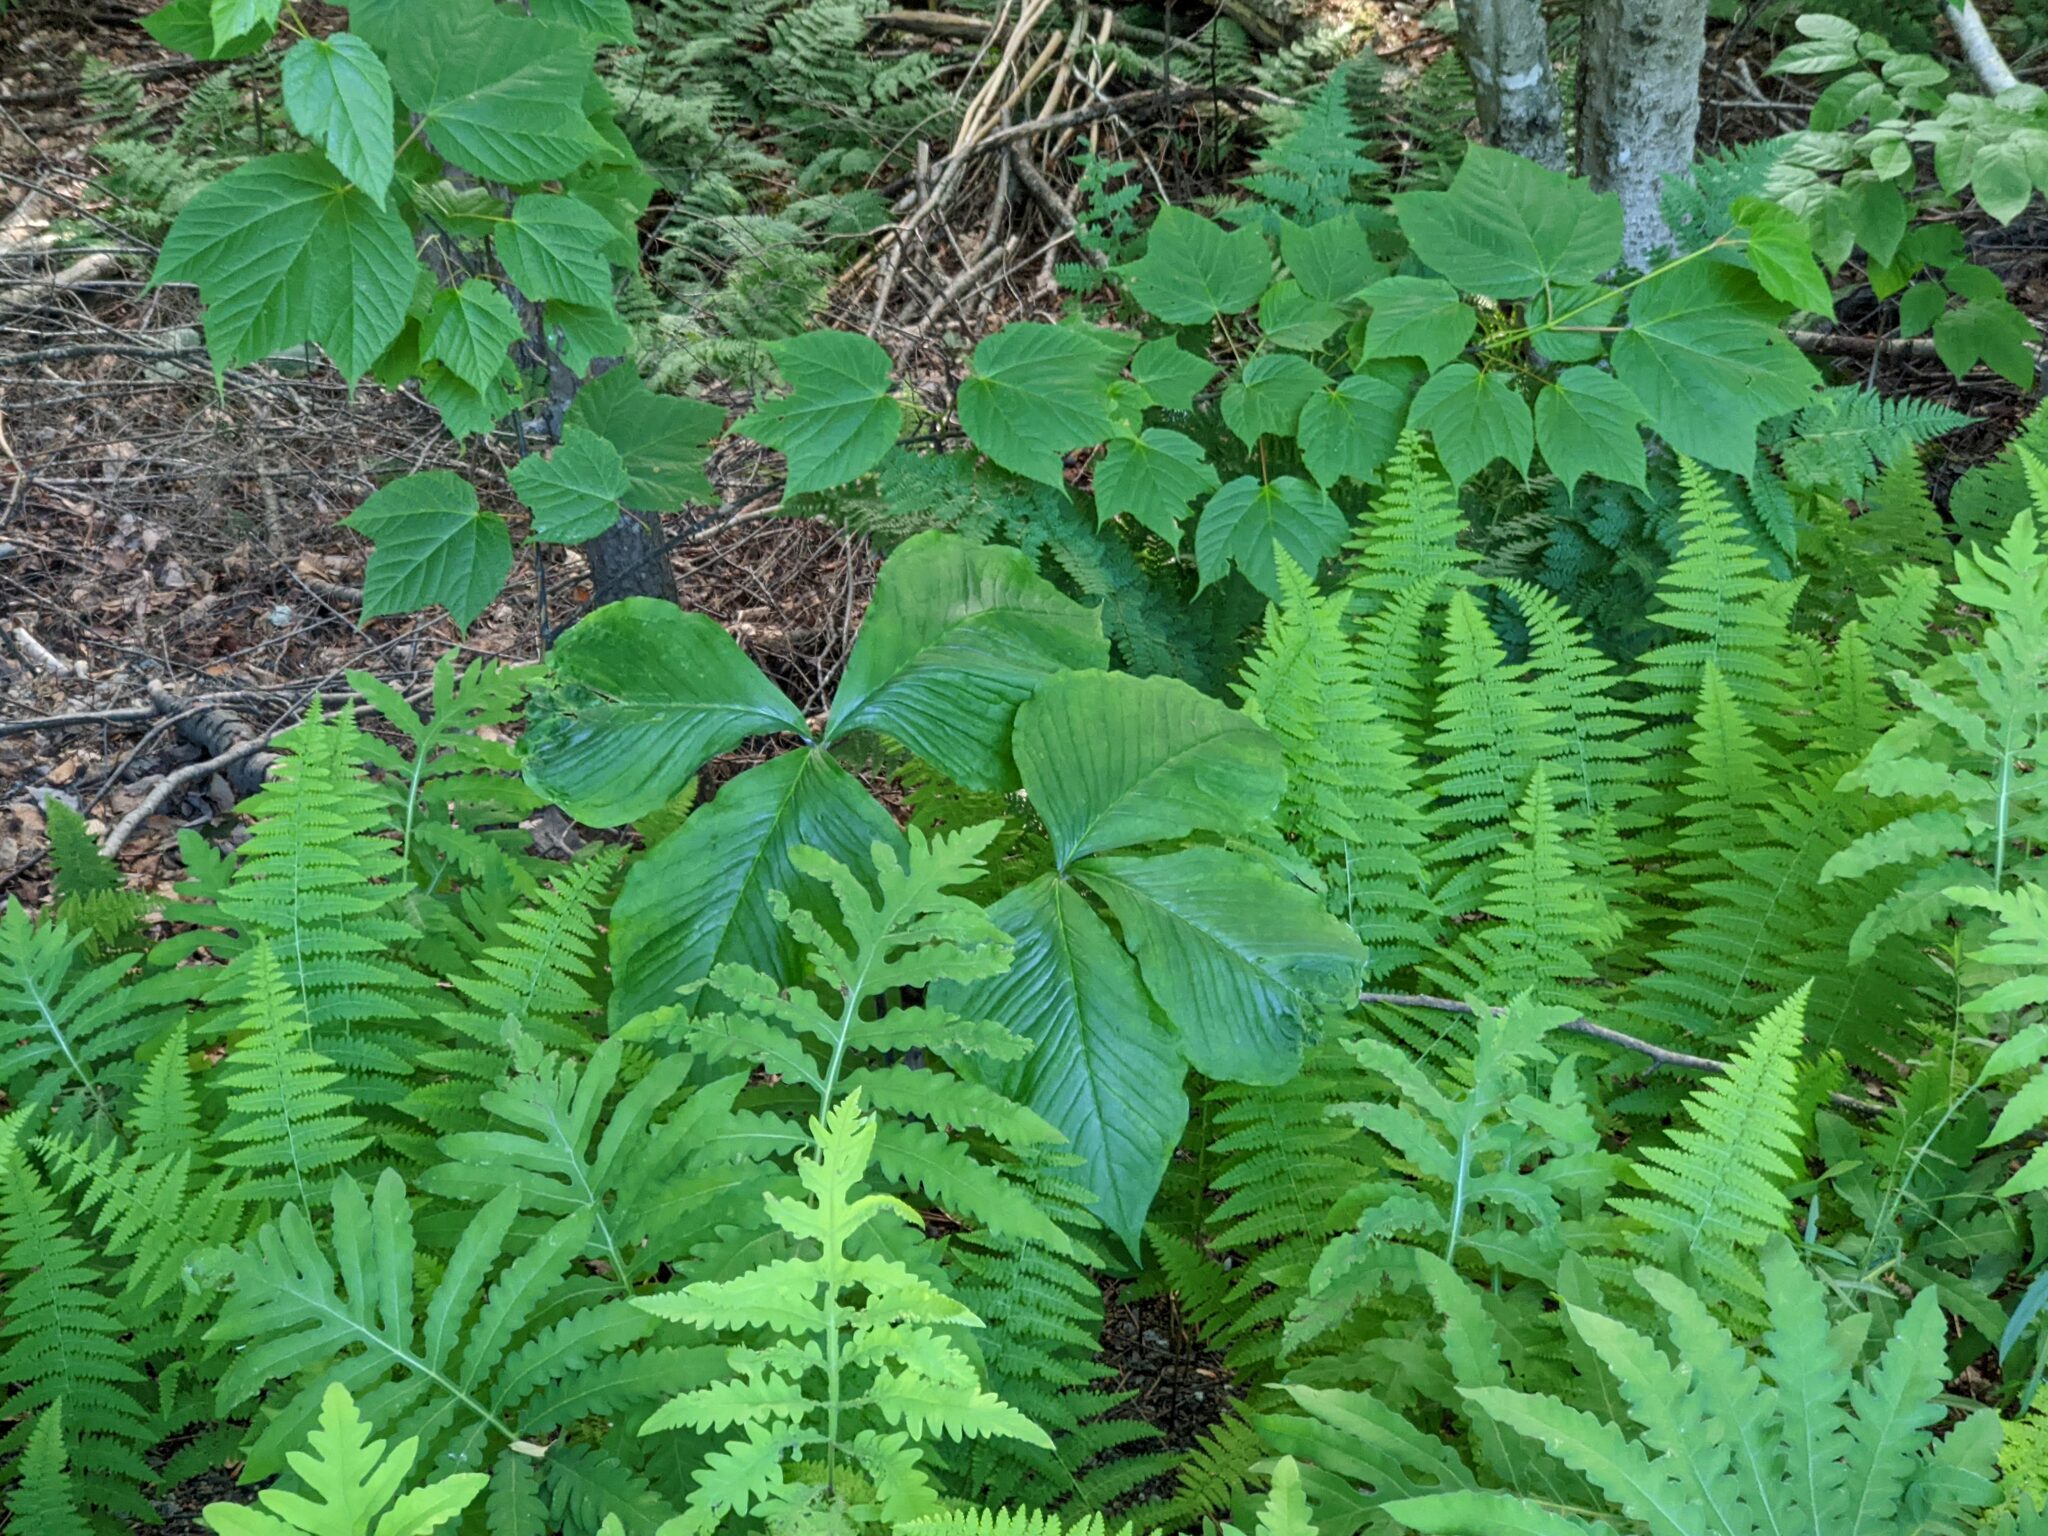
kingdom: Plantae
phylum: Tracheophyta
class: Liliopsida
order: Alismatales
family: Araceae
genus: Arisaema
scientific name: Arisaema triphyllum
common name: Jack-in-the-pulpit
